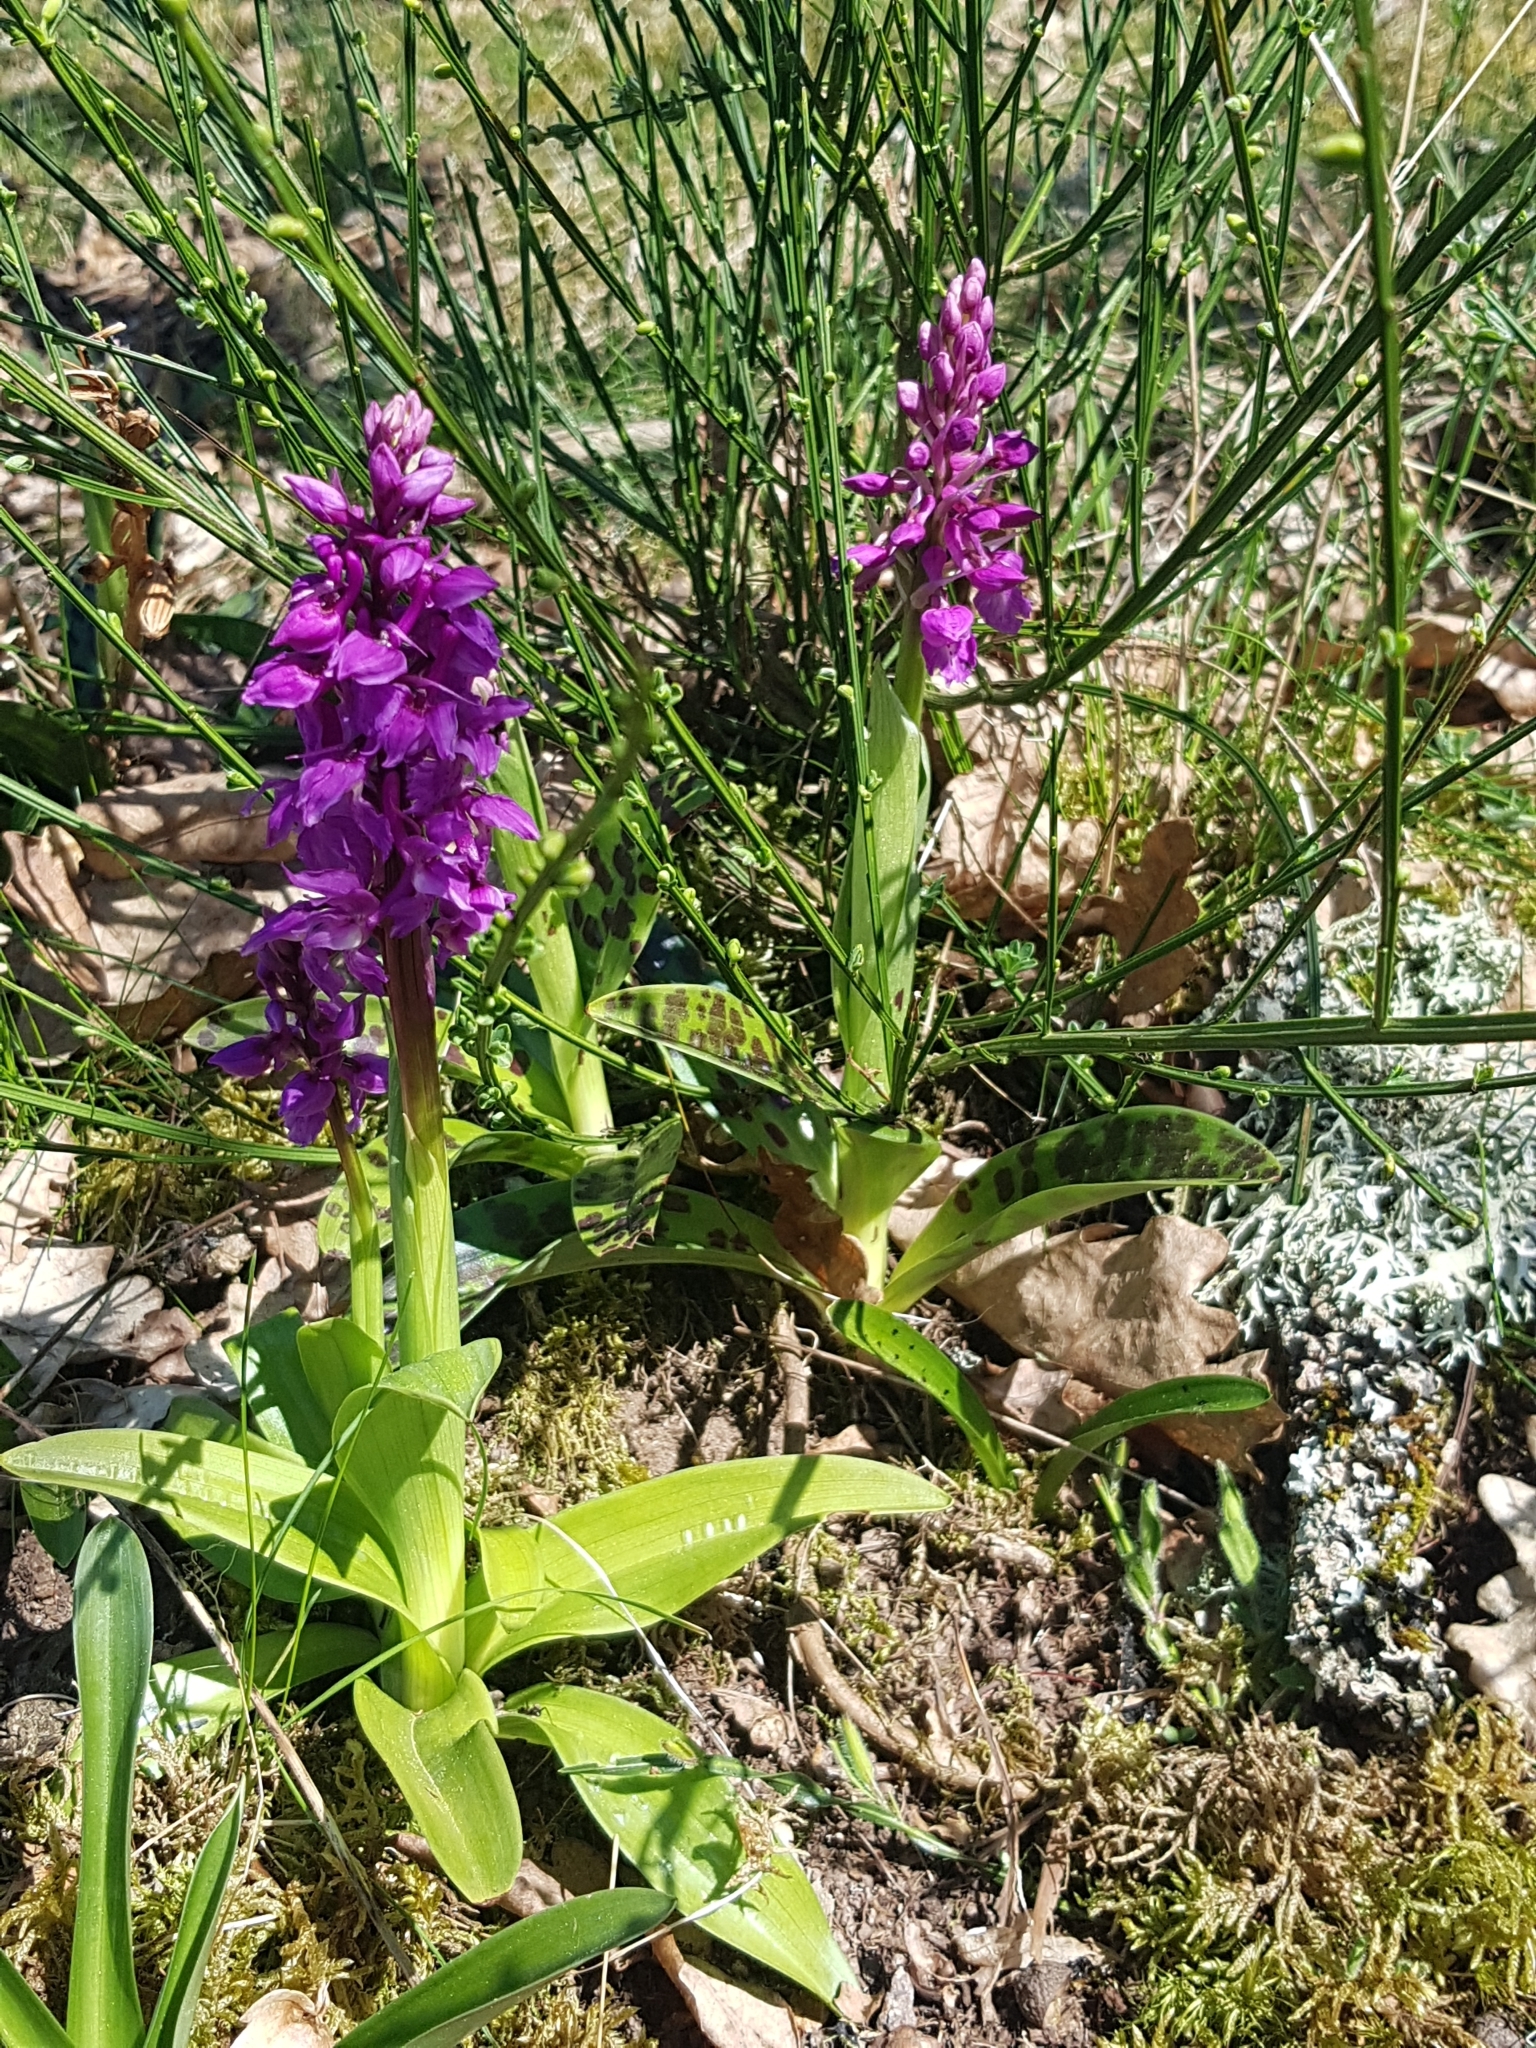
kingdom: Plantae
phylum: Tracheophyta
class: Liliopsida
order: Asparagales
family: Orchidaceae
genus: Orchis
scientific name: Orchis mascula
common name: Early-purple orchid
